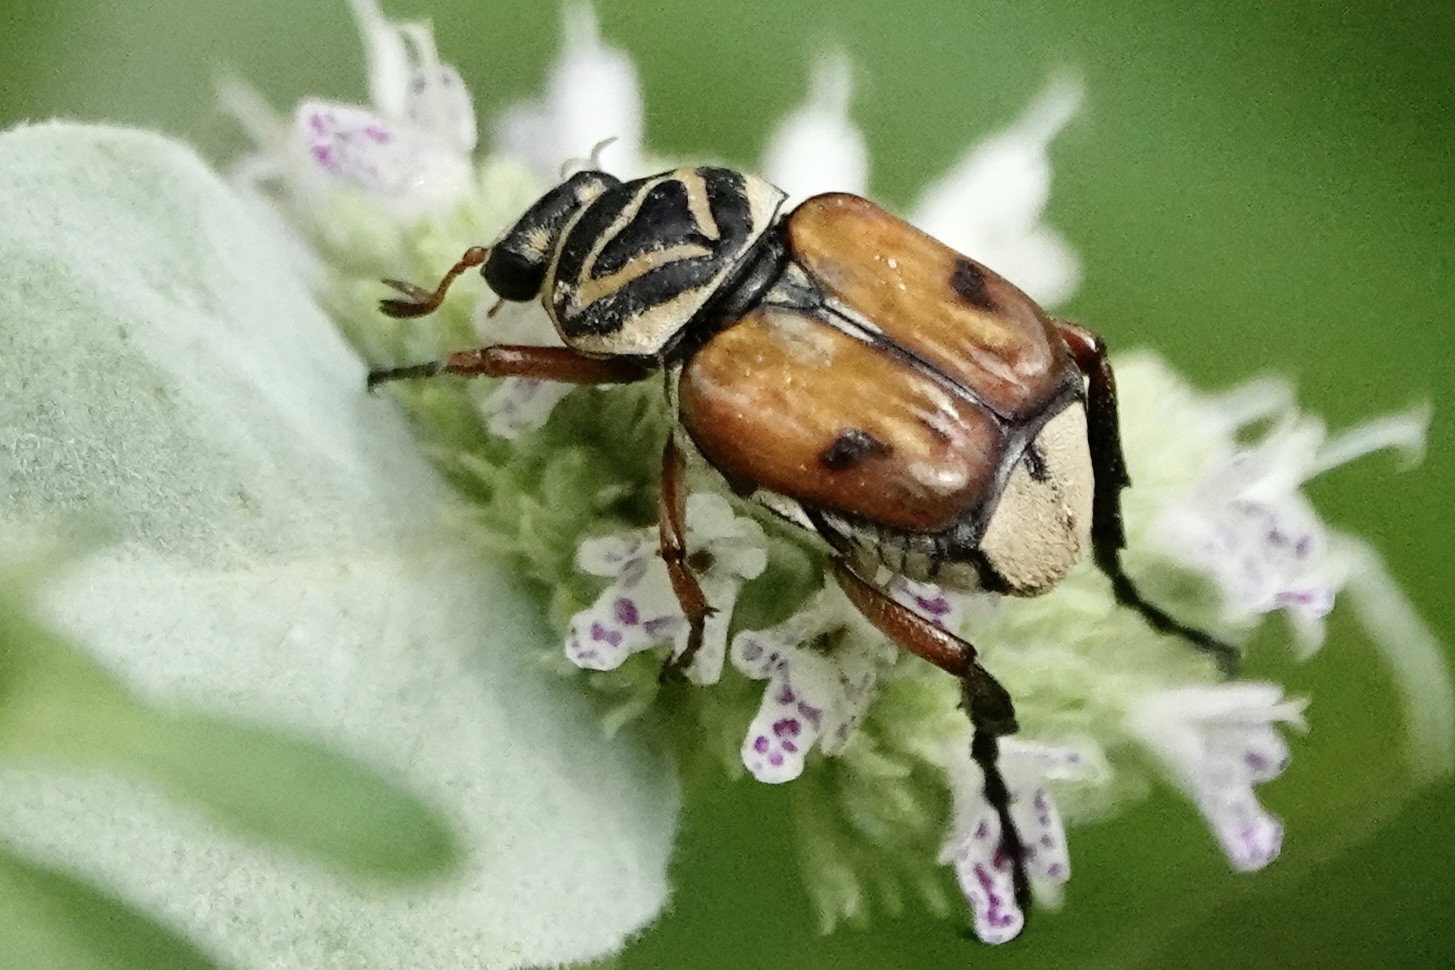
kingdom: Animalia
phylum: Arthropoda
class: Insecta
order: Coleoptera
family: Scarabaeidae
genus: Trigonopeltastes
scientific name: Trigonopeltastes delta
